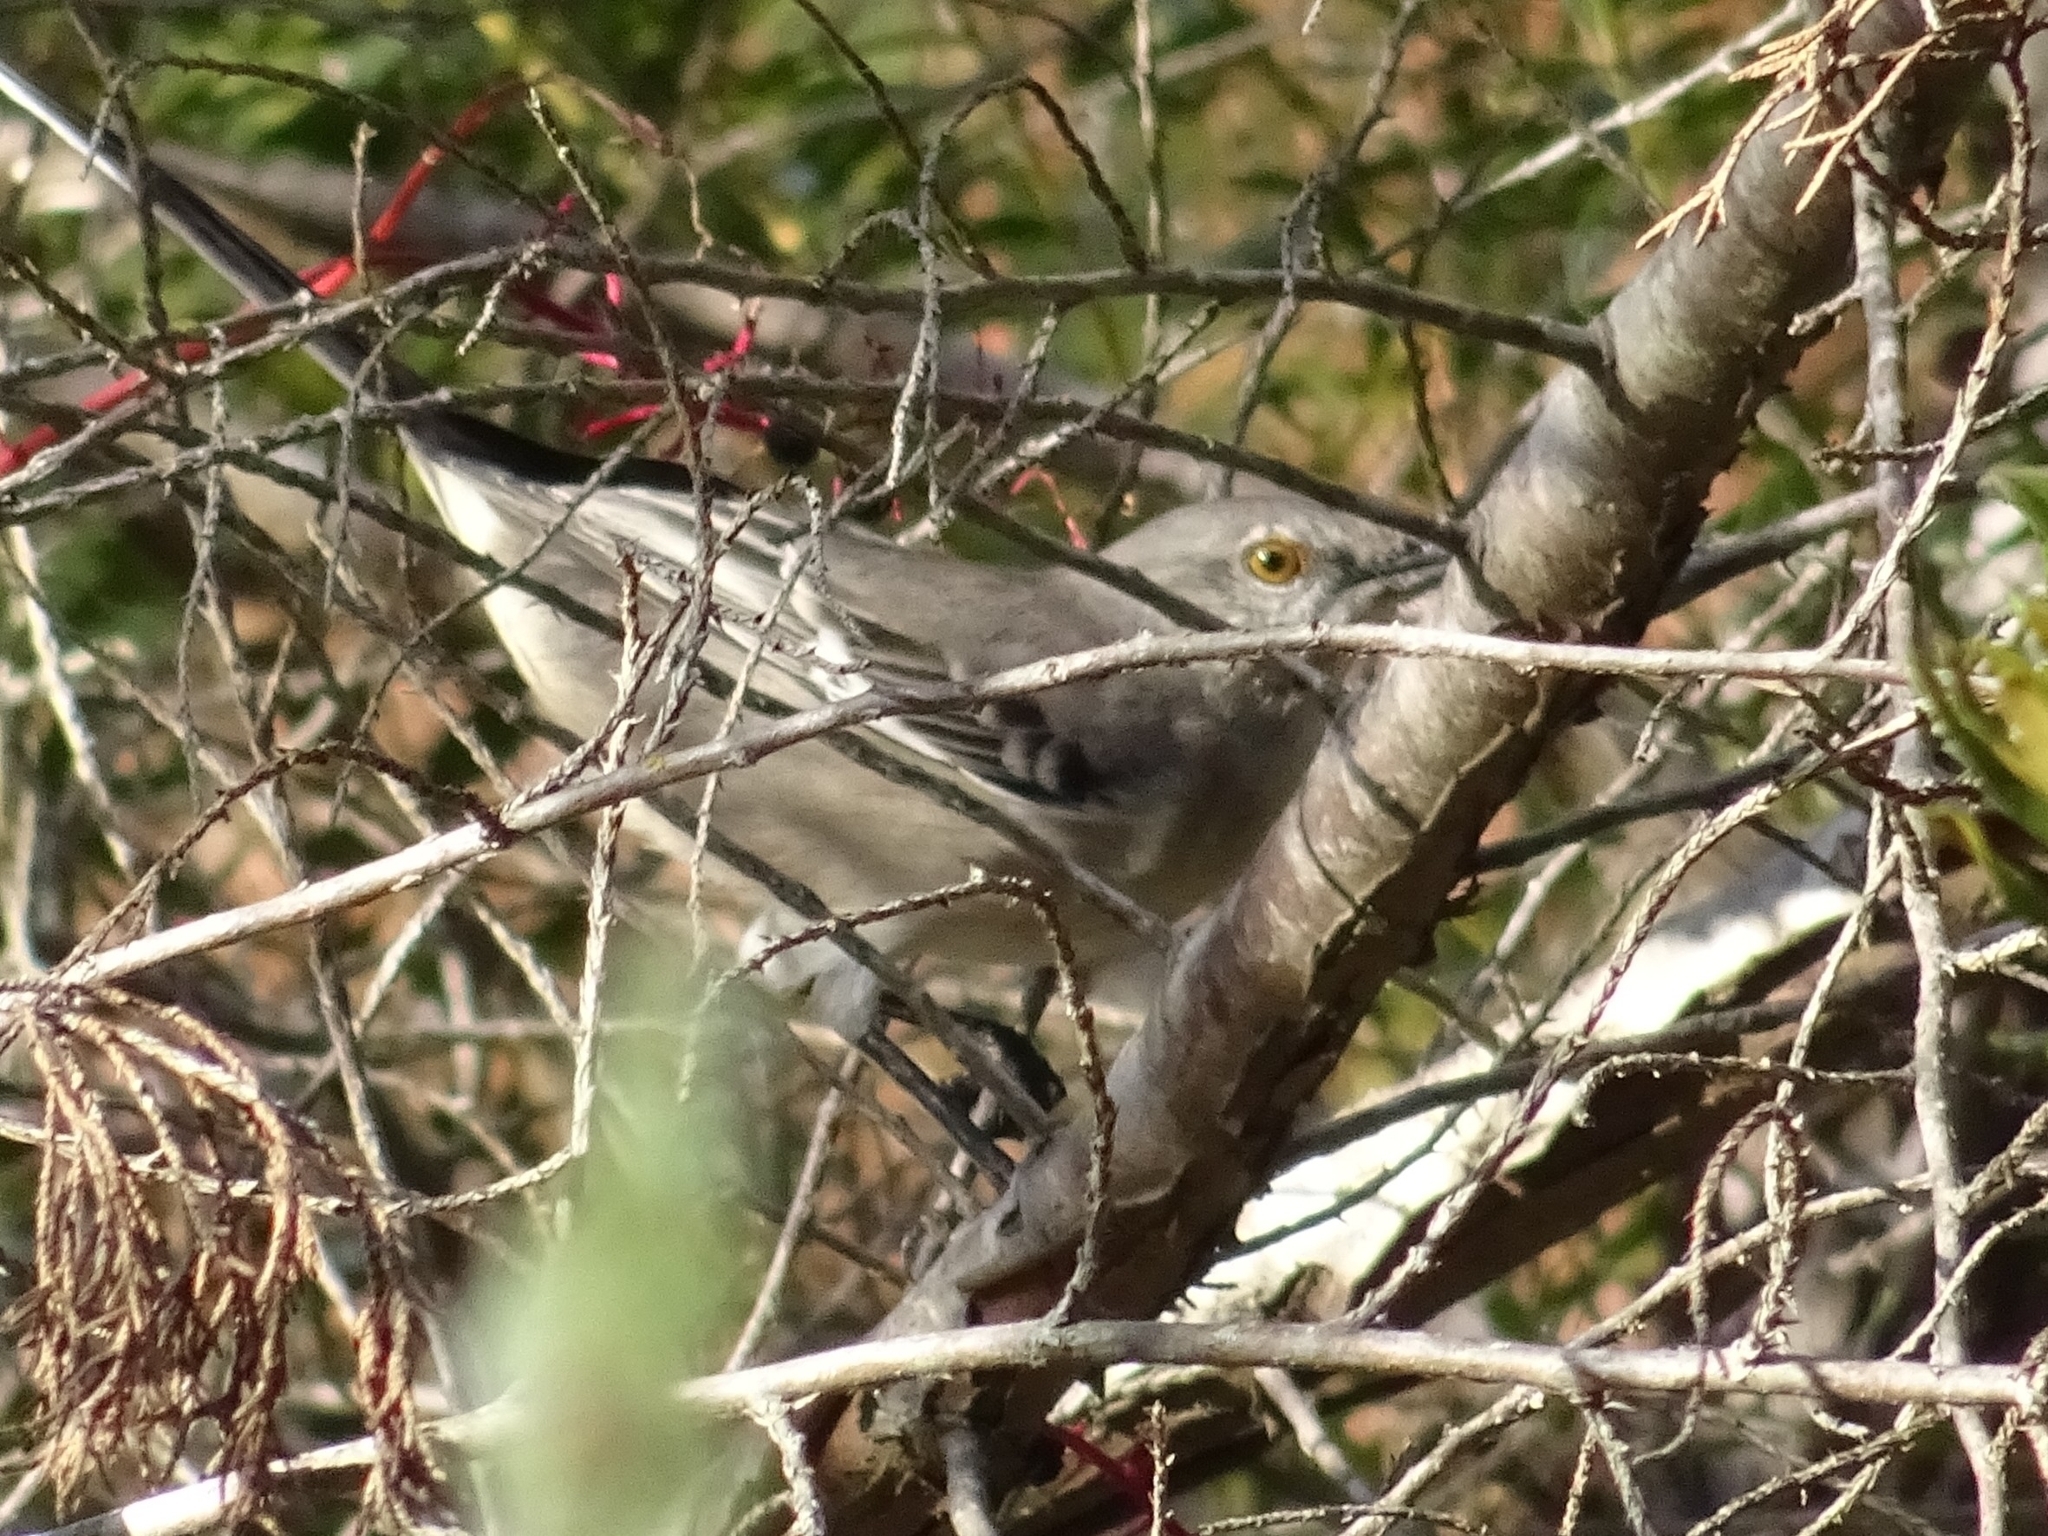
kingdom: Animalia
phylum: Chordata
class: Aves
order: Passeriformes
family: Mimidae
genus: Mimus
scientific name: Mimus polyglottos
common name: Northern mockingbird
